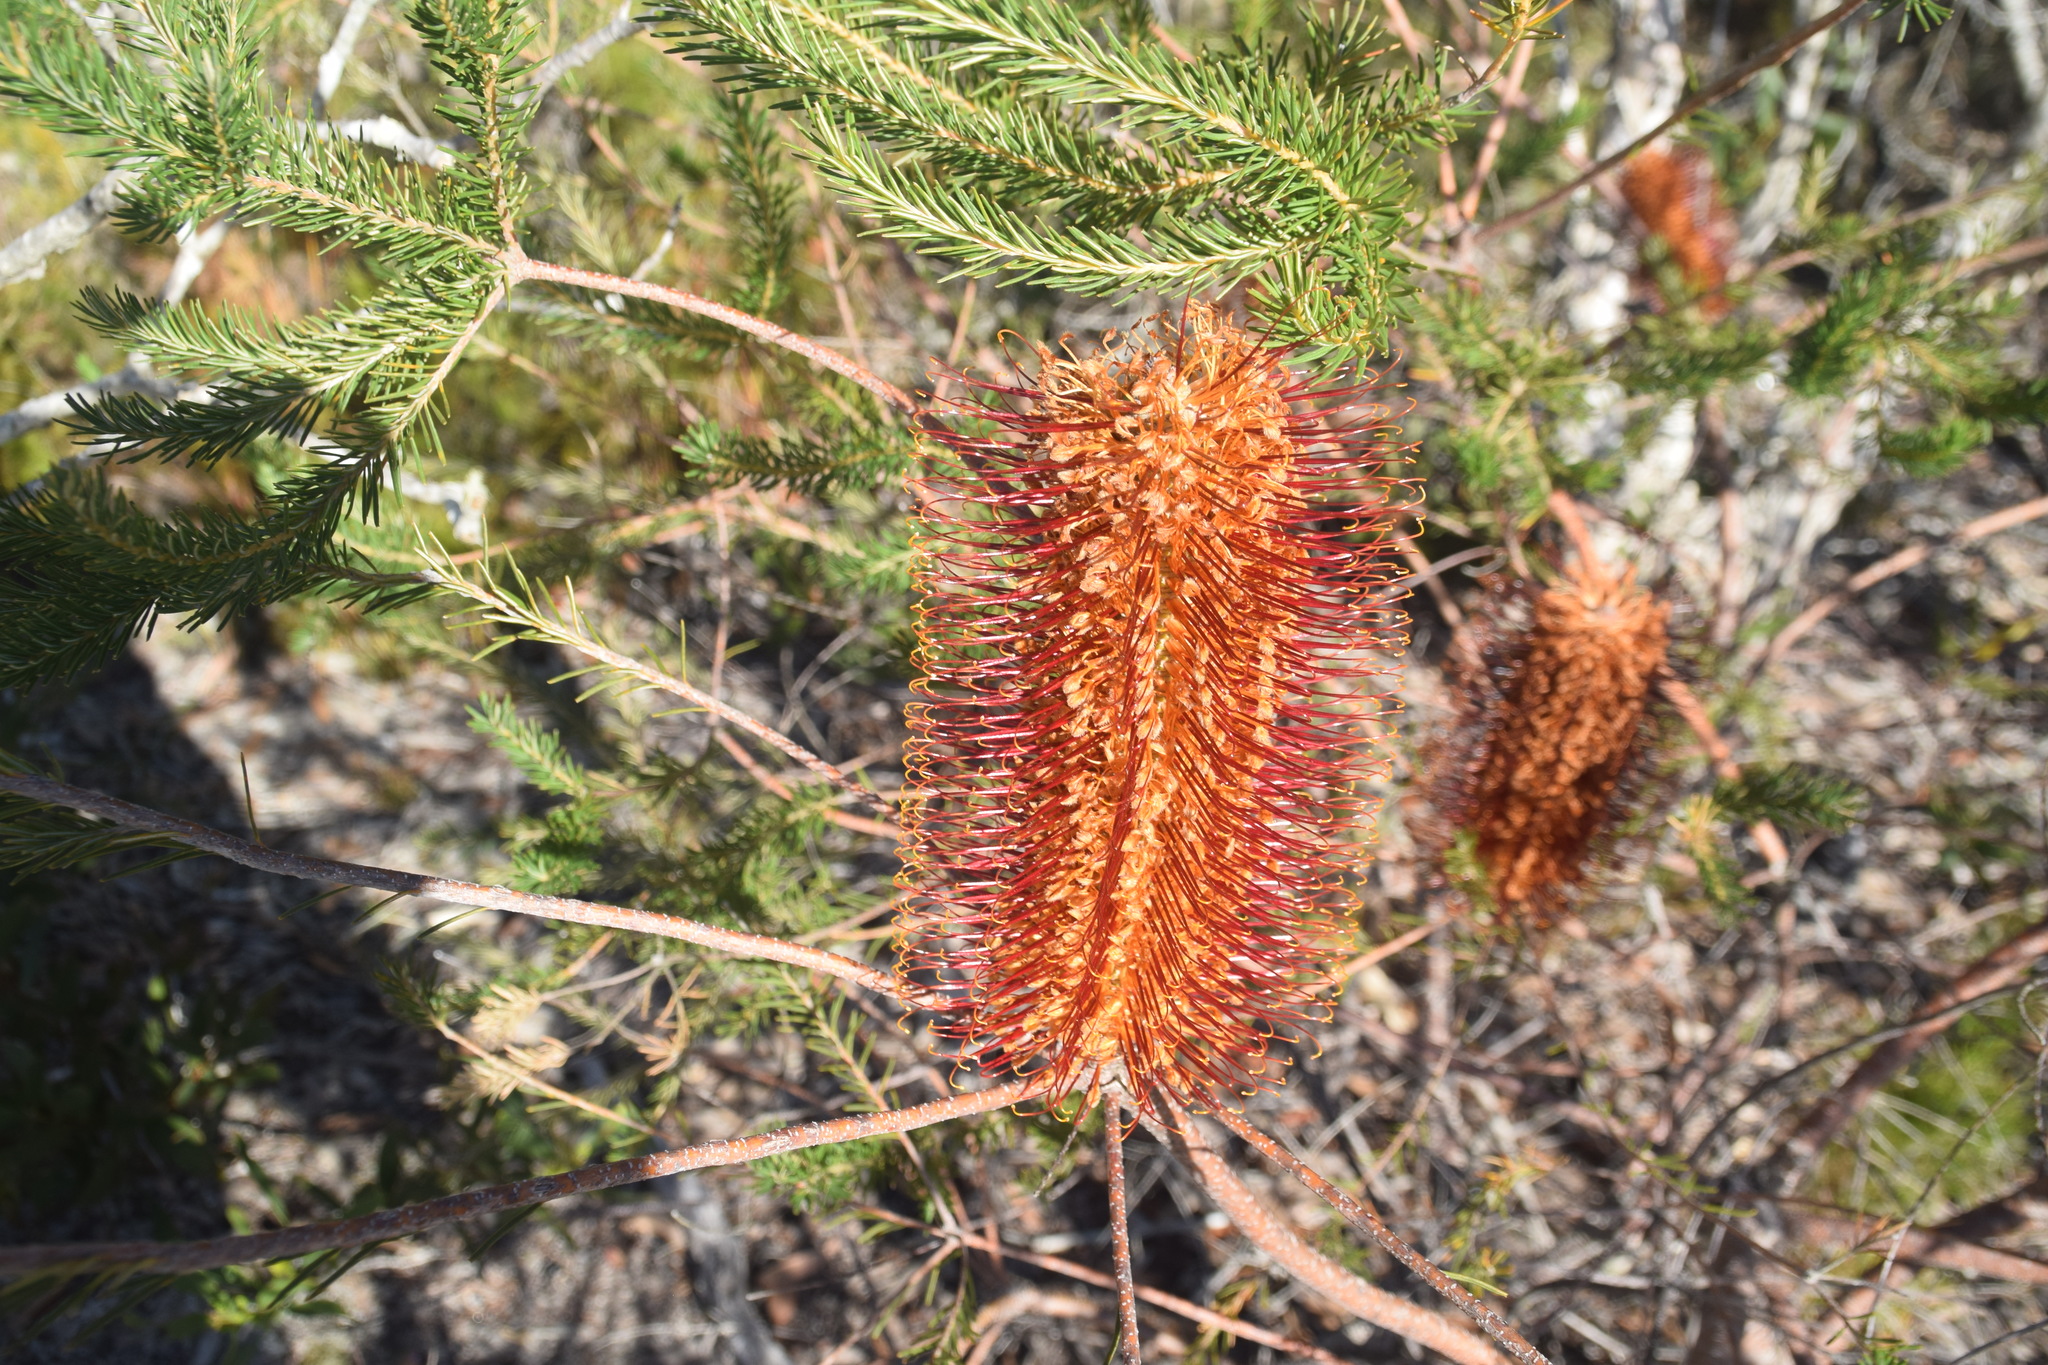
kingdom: Plantae
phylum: Tracheophyta
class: Magnoliopsida
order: Proteales
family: Proteaceae
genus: Banksia
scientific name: Banksia ericifolia
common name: Heath-leaf banksia
